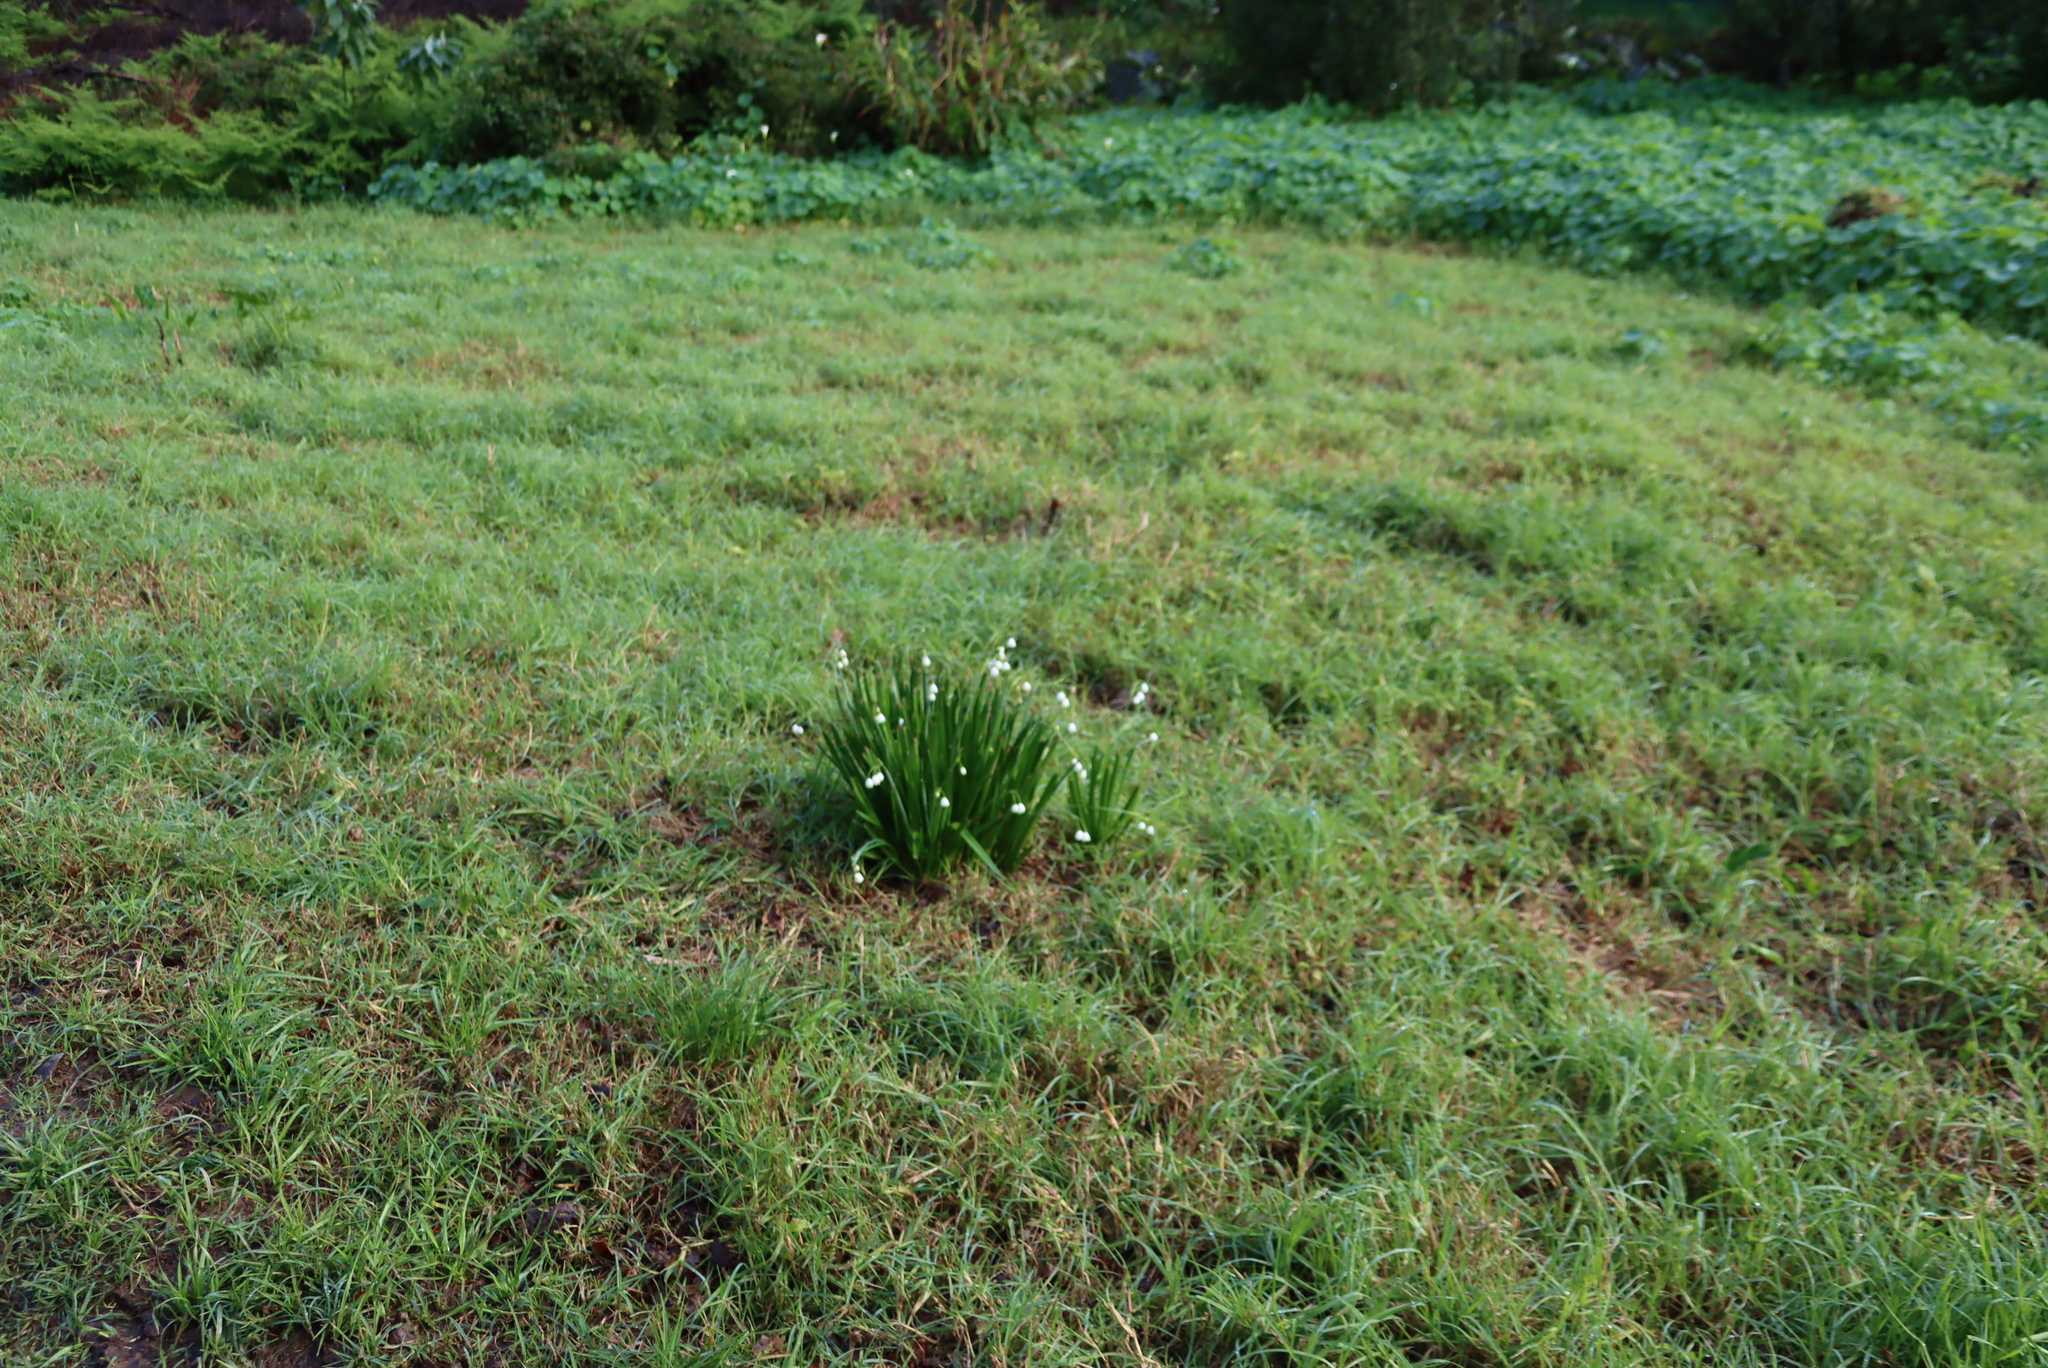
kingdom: Plantae
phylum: Tracheophyta
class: Liliopsida
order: Asparagales
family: Amaryllidaceae
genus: Leucojum
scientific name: Leucojum aestivum
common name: Summer snowflake
